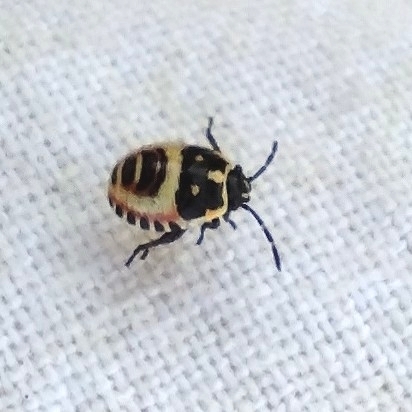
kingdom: Animalia
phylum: Arthropoda
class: Insecta
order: Hemiptera
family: Pentatomidae
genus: Eurydema
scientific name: Eurydema oleracea
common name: Cabbage bug
